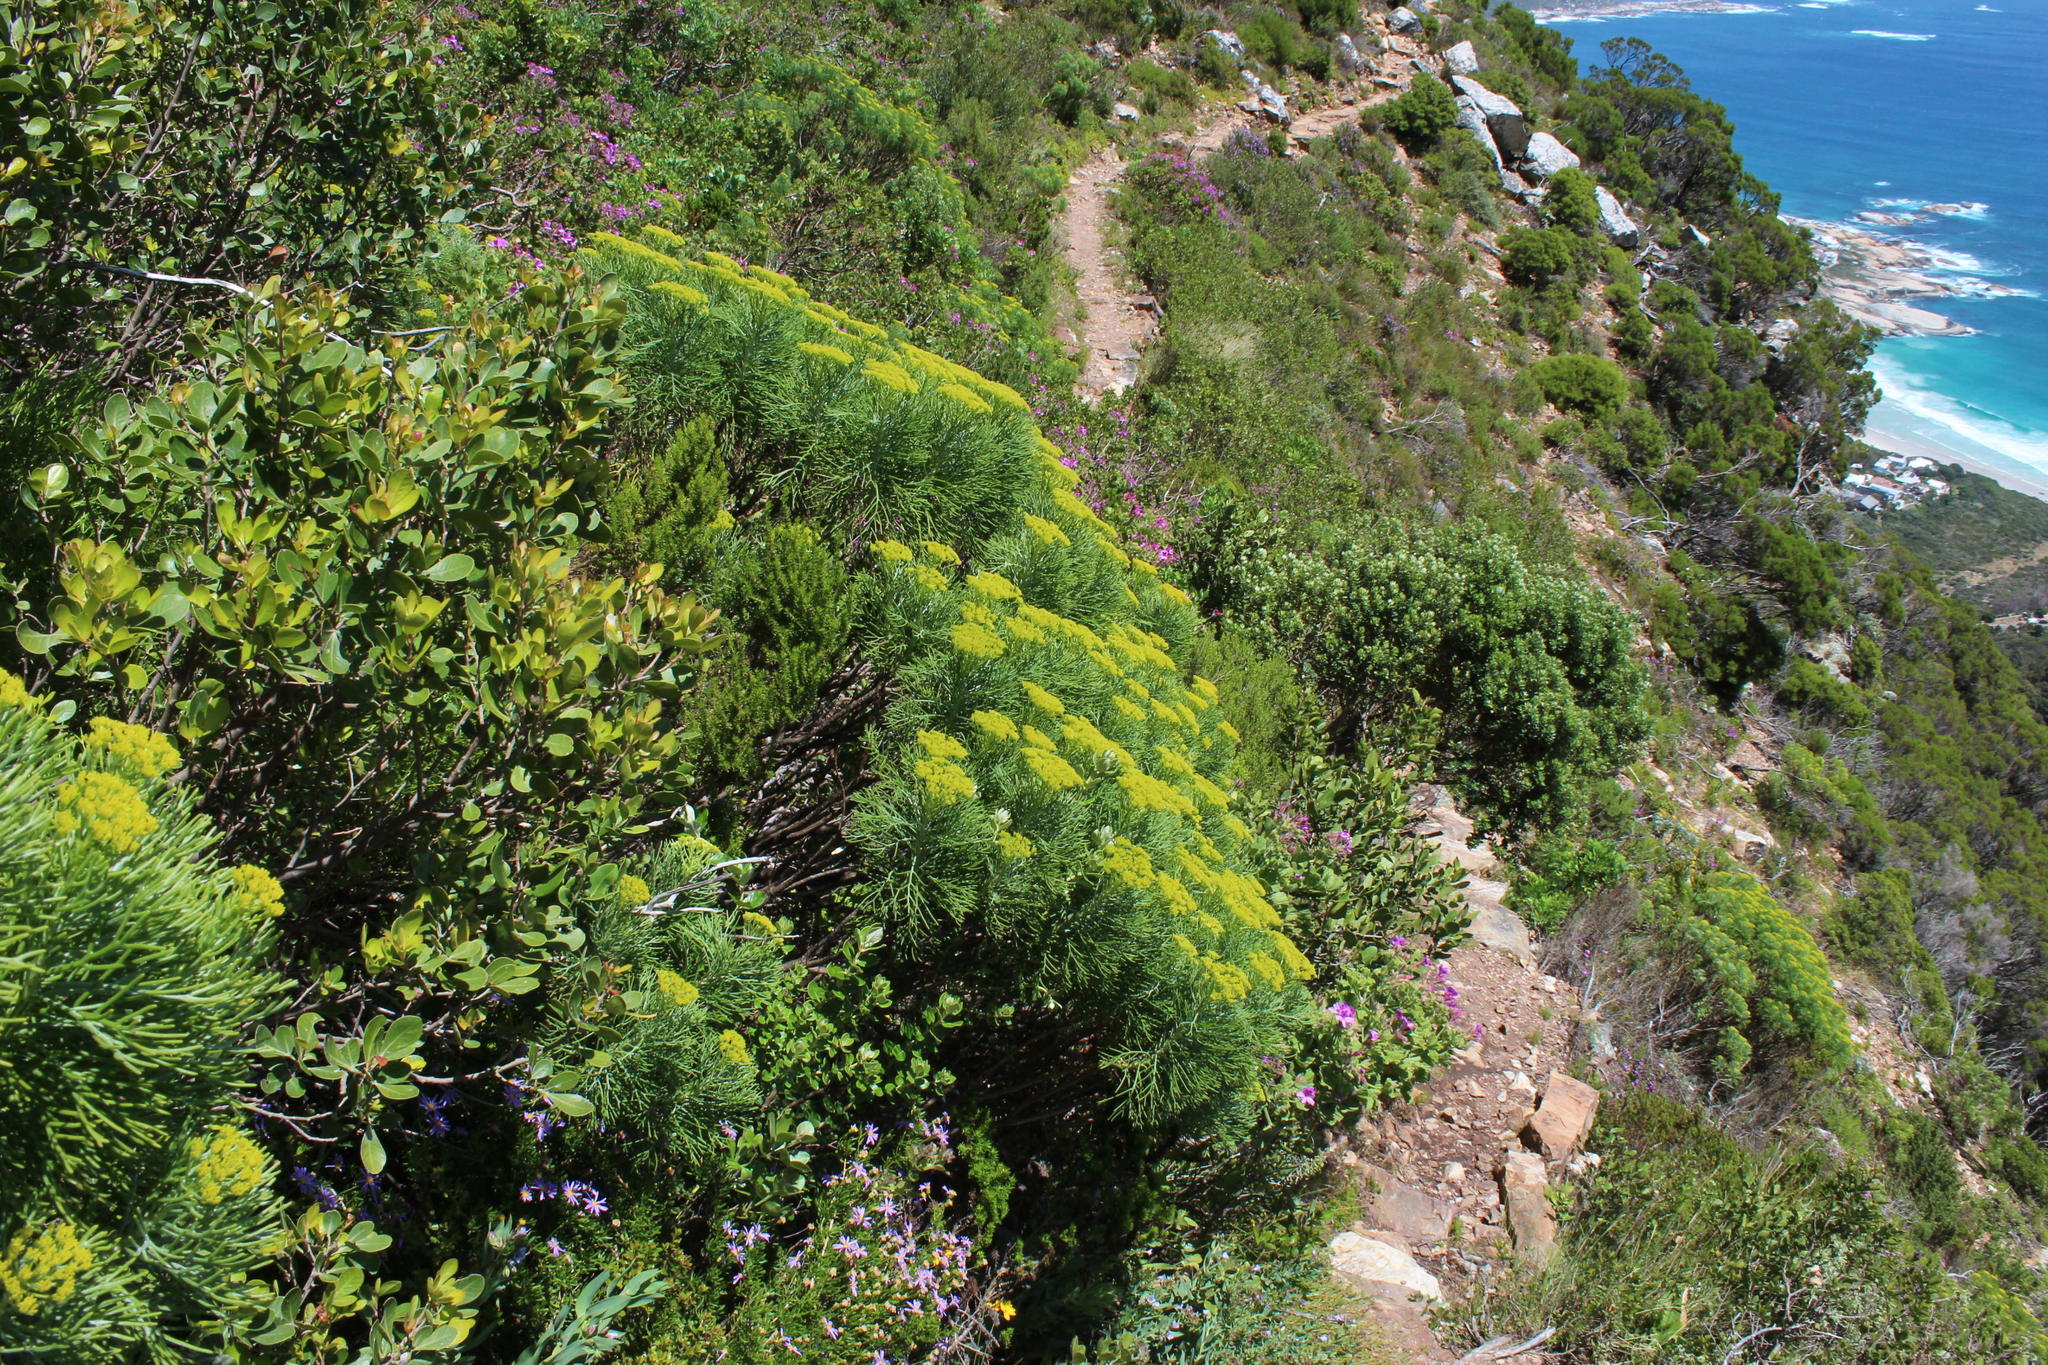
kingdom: Plantae
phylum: Tracheophyta
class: Magnoliopsida
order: Asterales
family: Asteraceae
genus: Hymenolepis
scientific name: Hymenolepis crithmifolia
